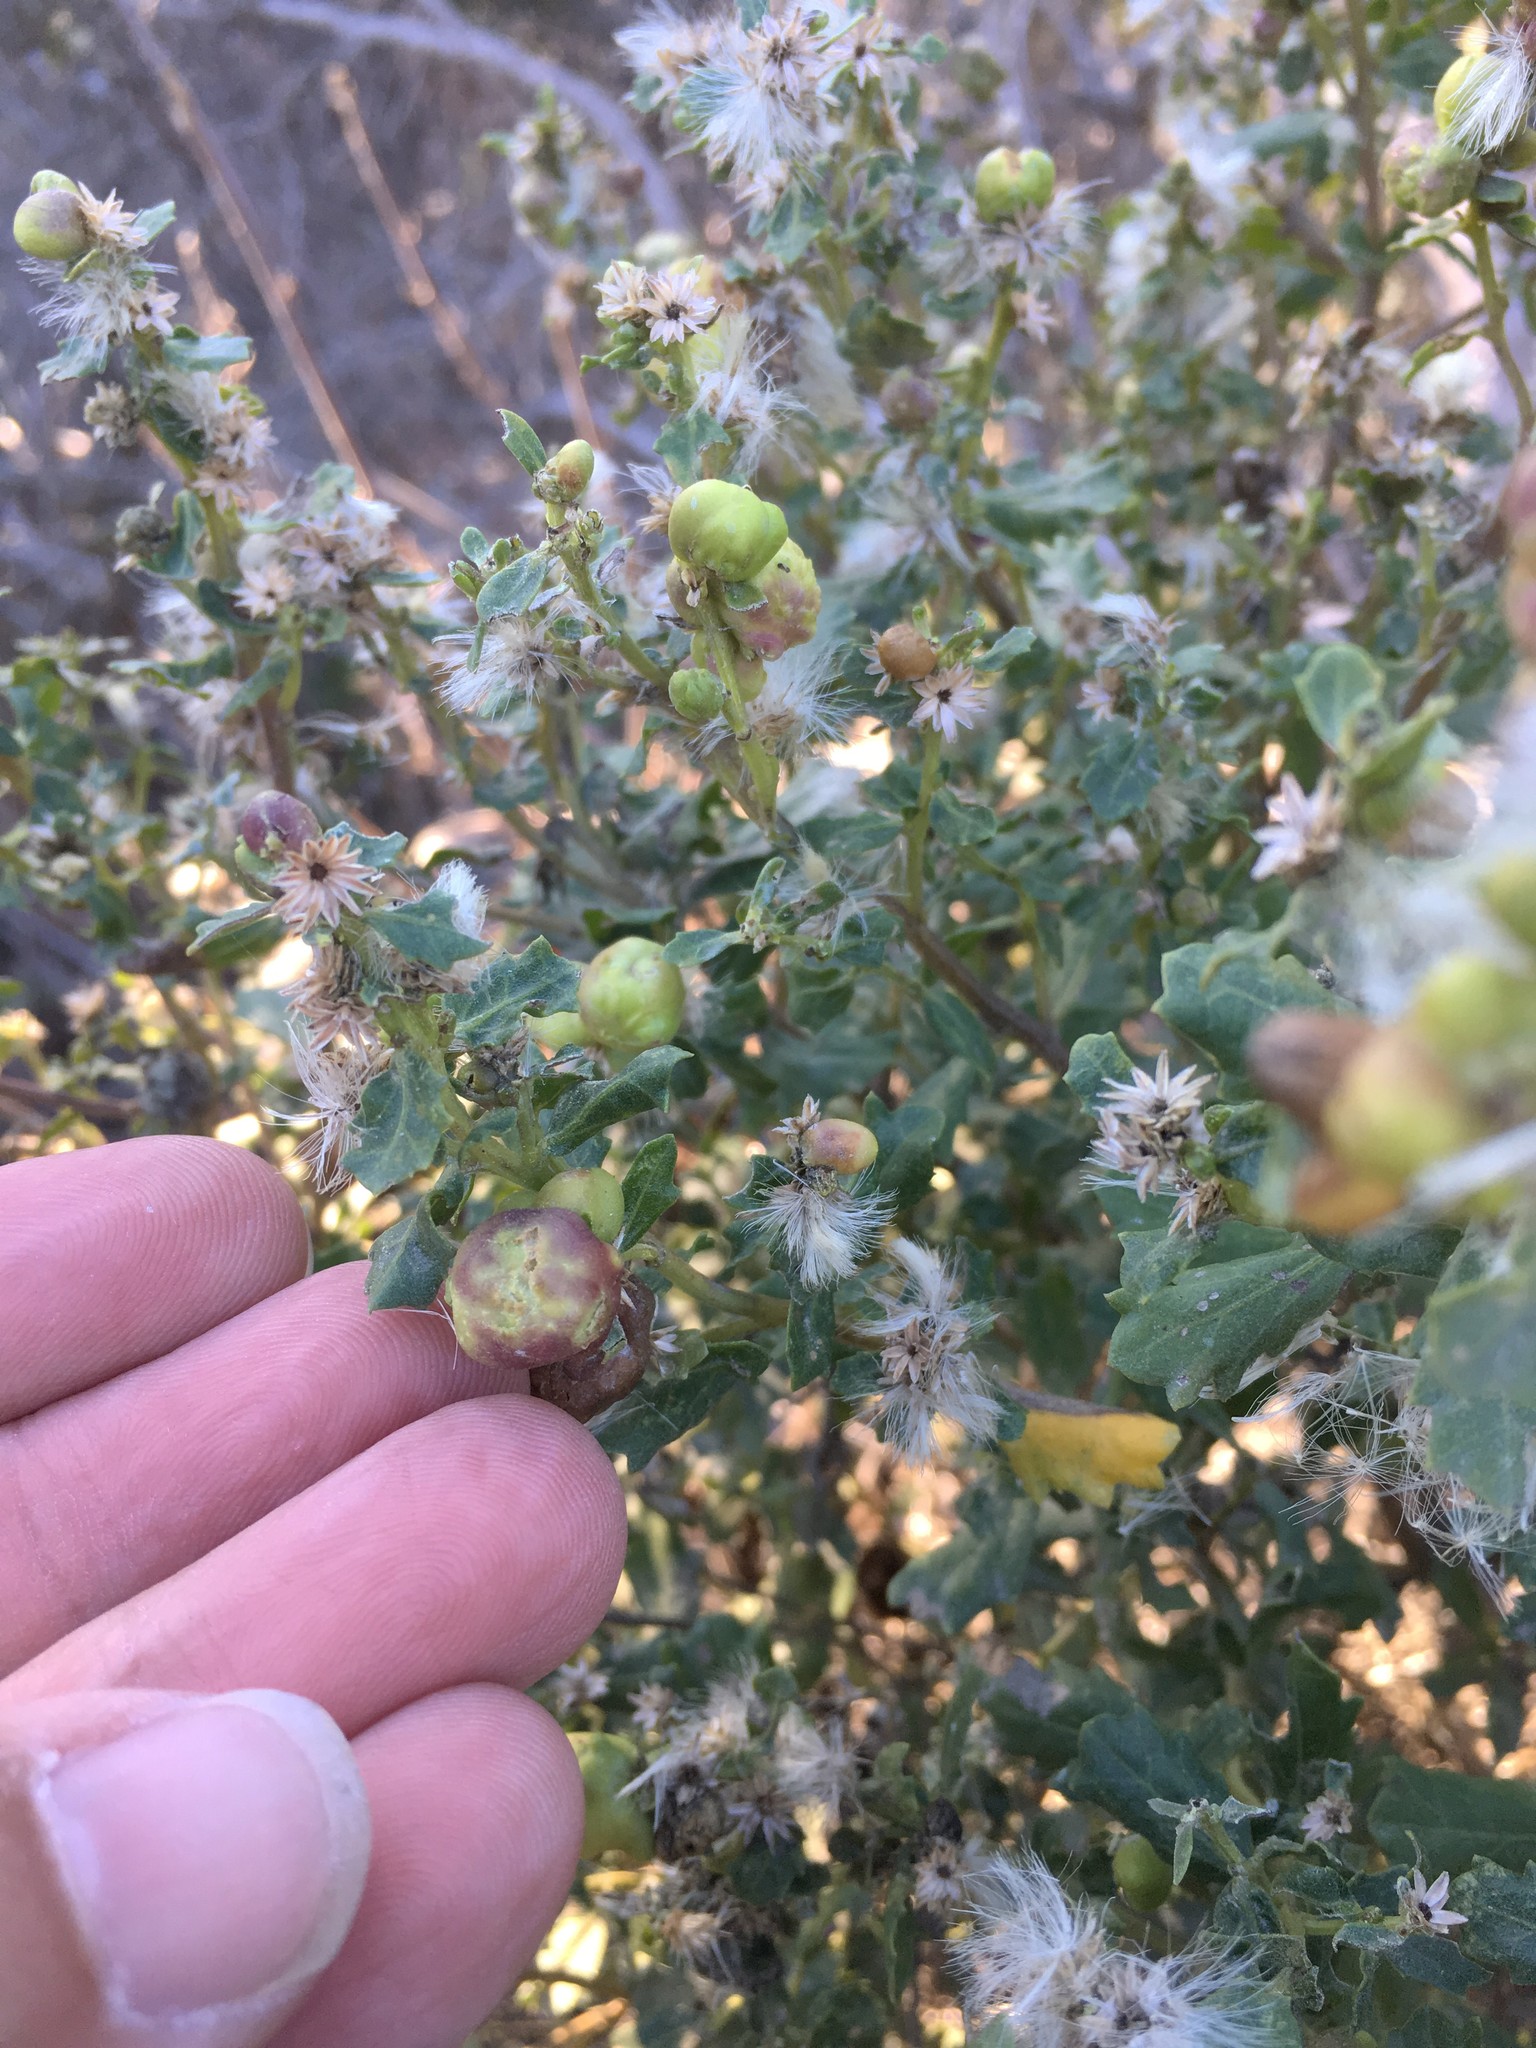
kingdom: Animalia
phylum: Arthropoda
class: Insecta
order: Diptera
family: Cecidomyiidae
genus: Rhopalomyia
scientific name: Rhopalomyia californica
